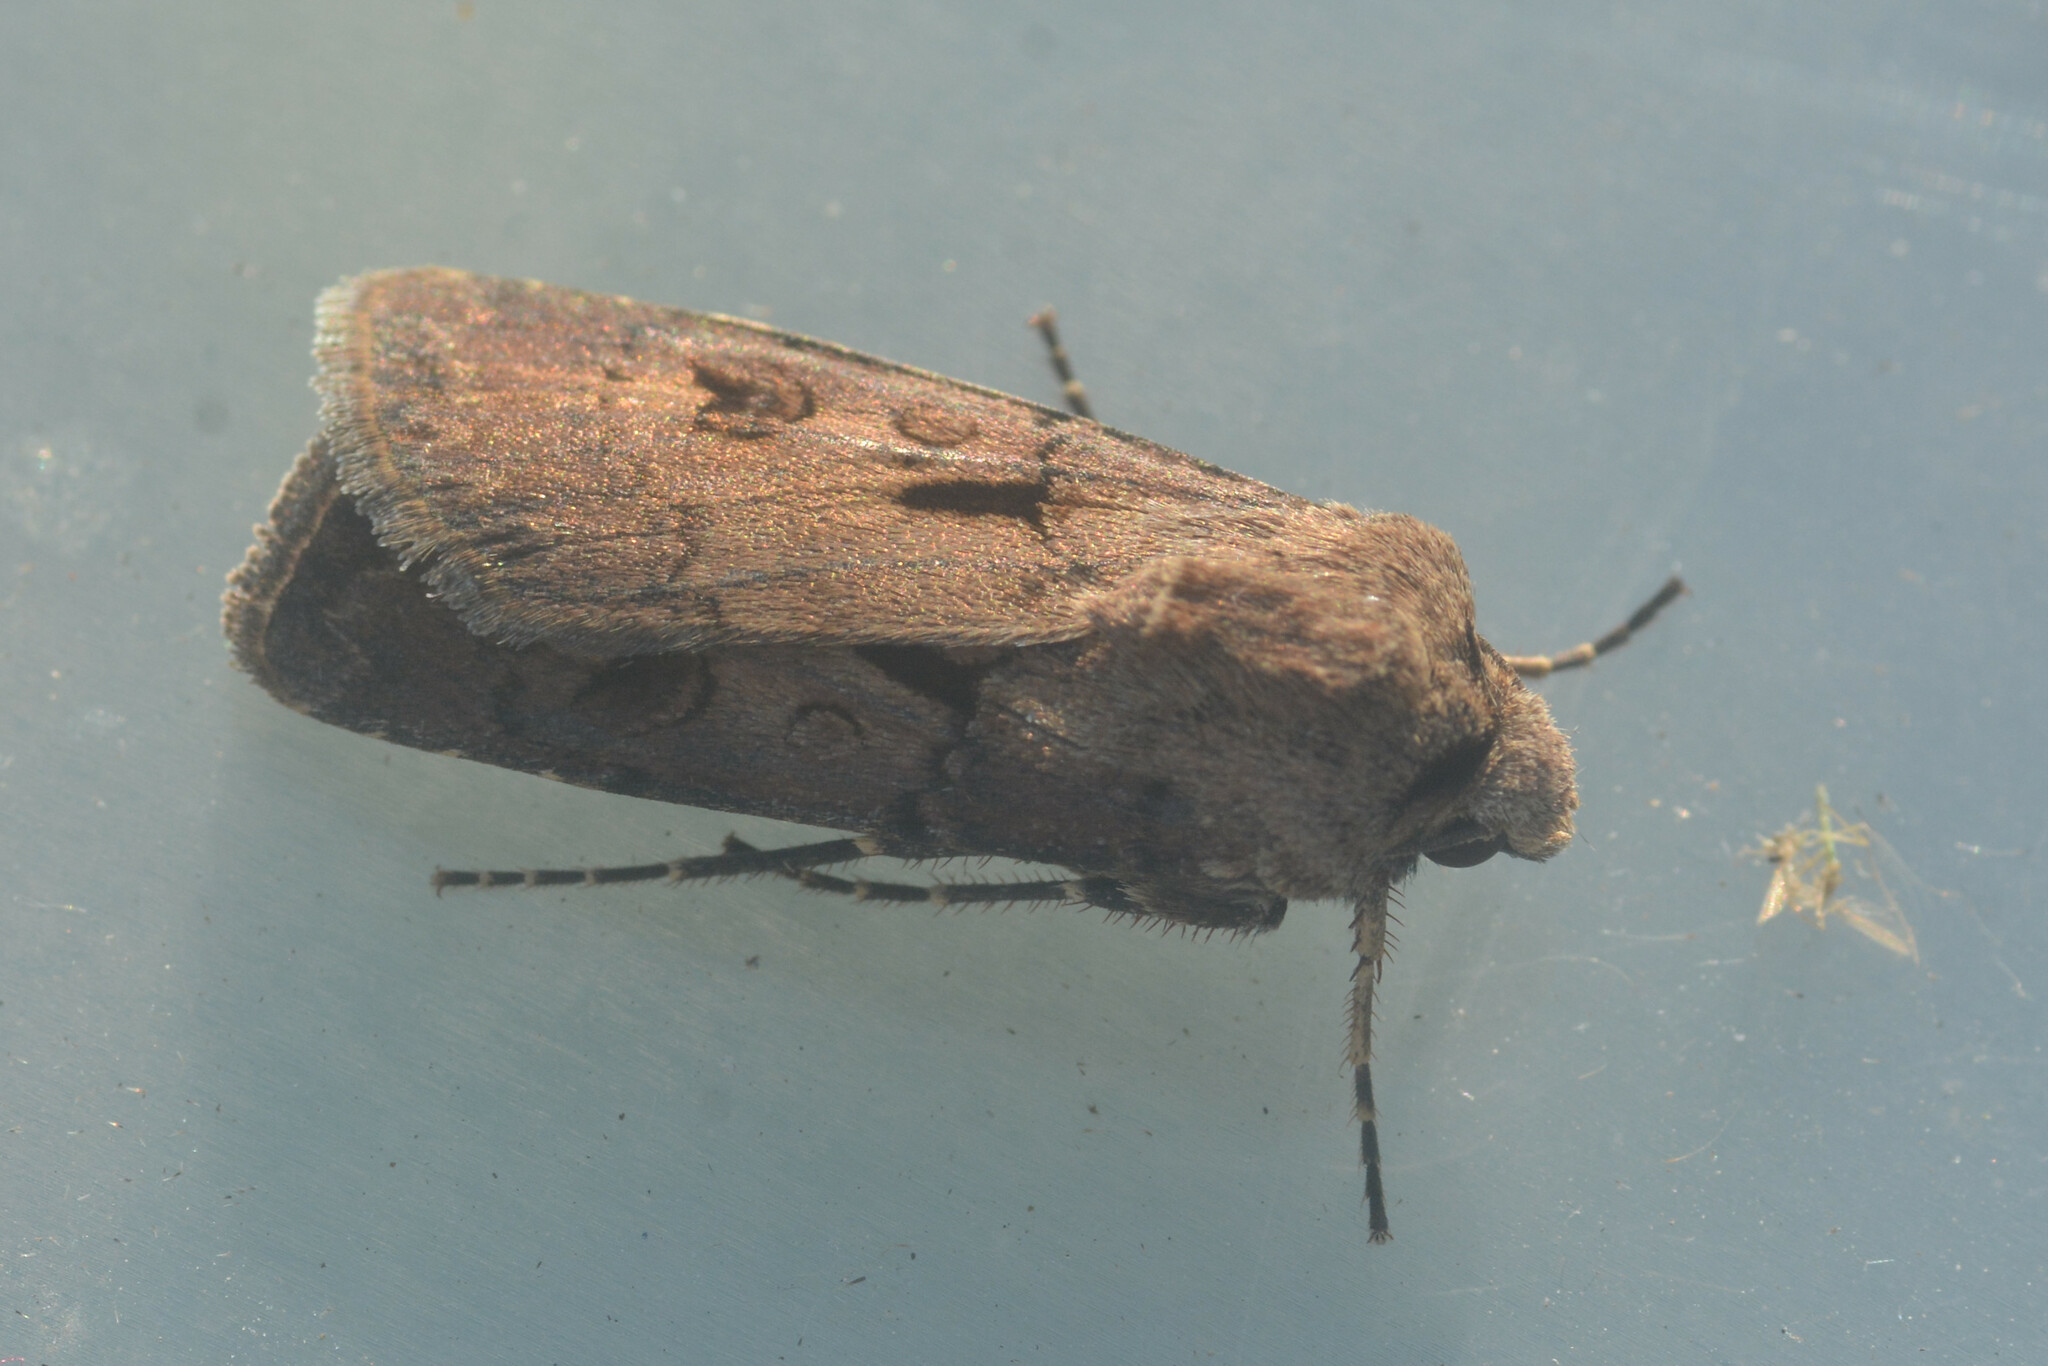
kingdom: Animalia
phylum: Arthropoda
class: Insecta
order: Lepidoptera
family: Noctuidae
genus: Agrotis
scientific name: Agrotis exclamationis
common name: Heart and dart
